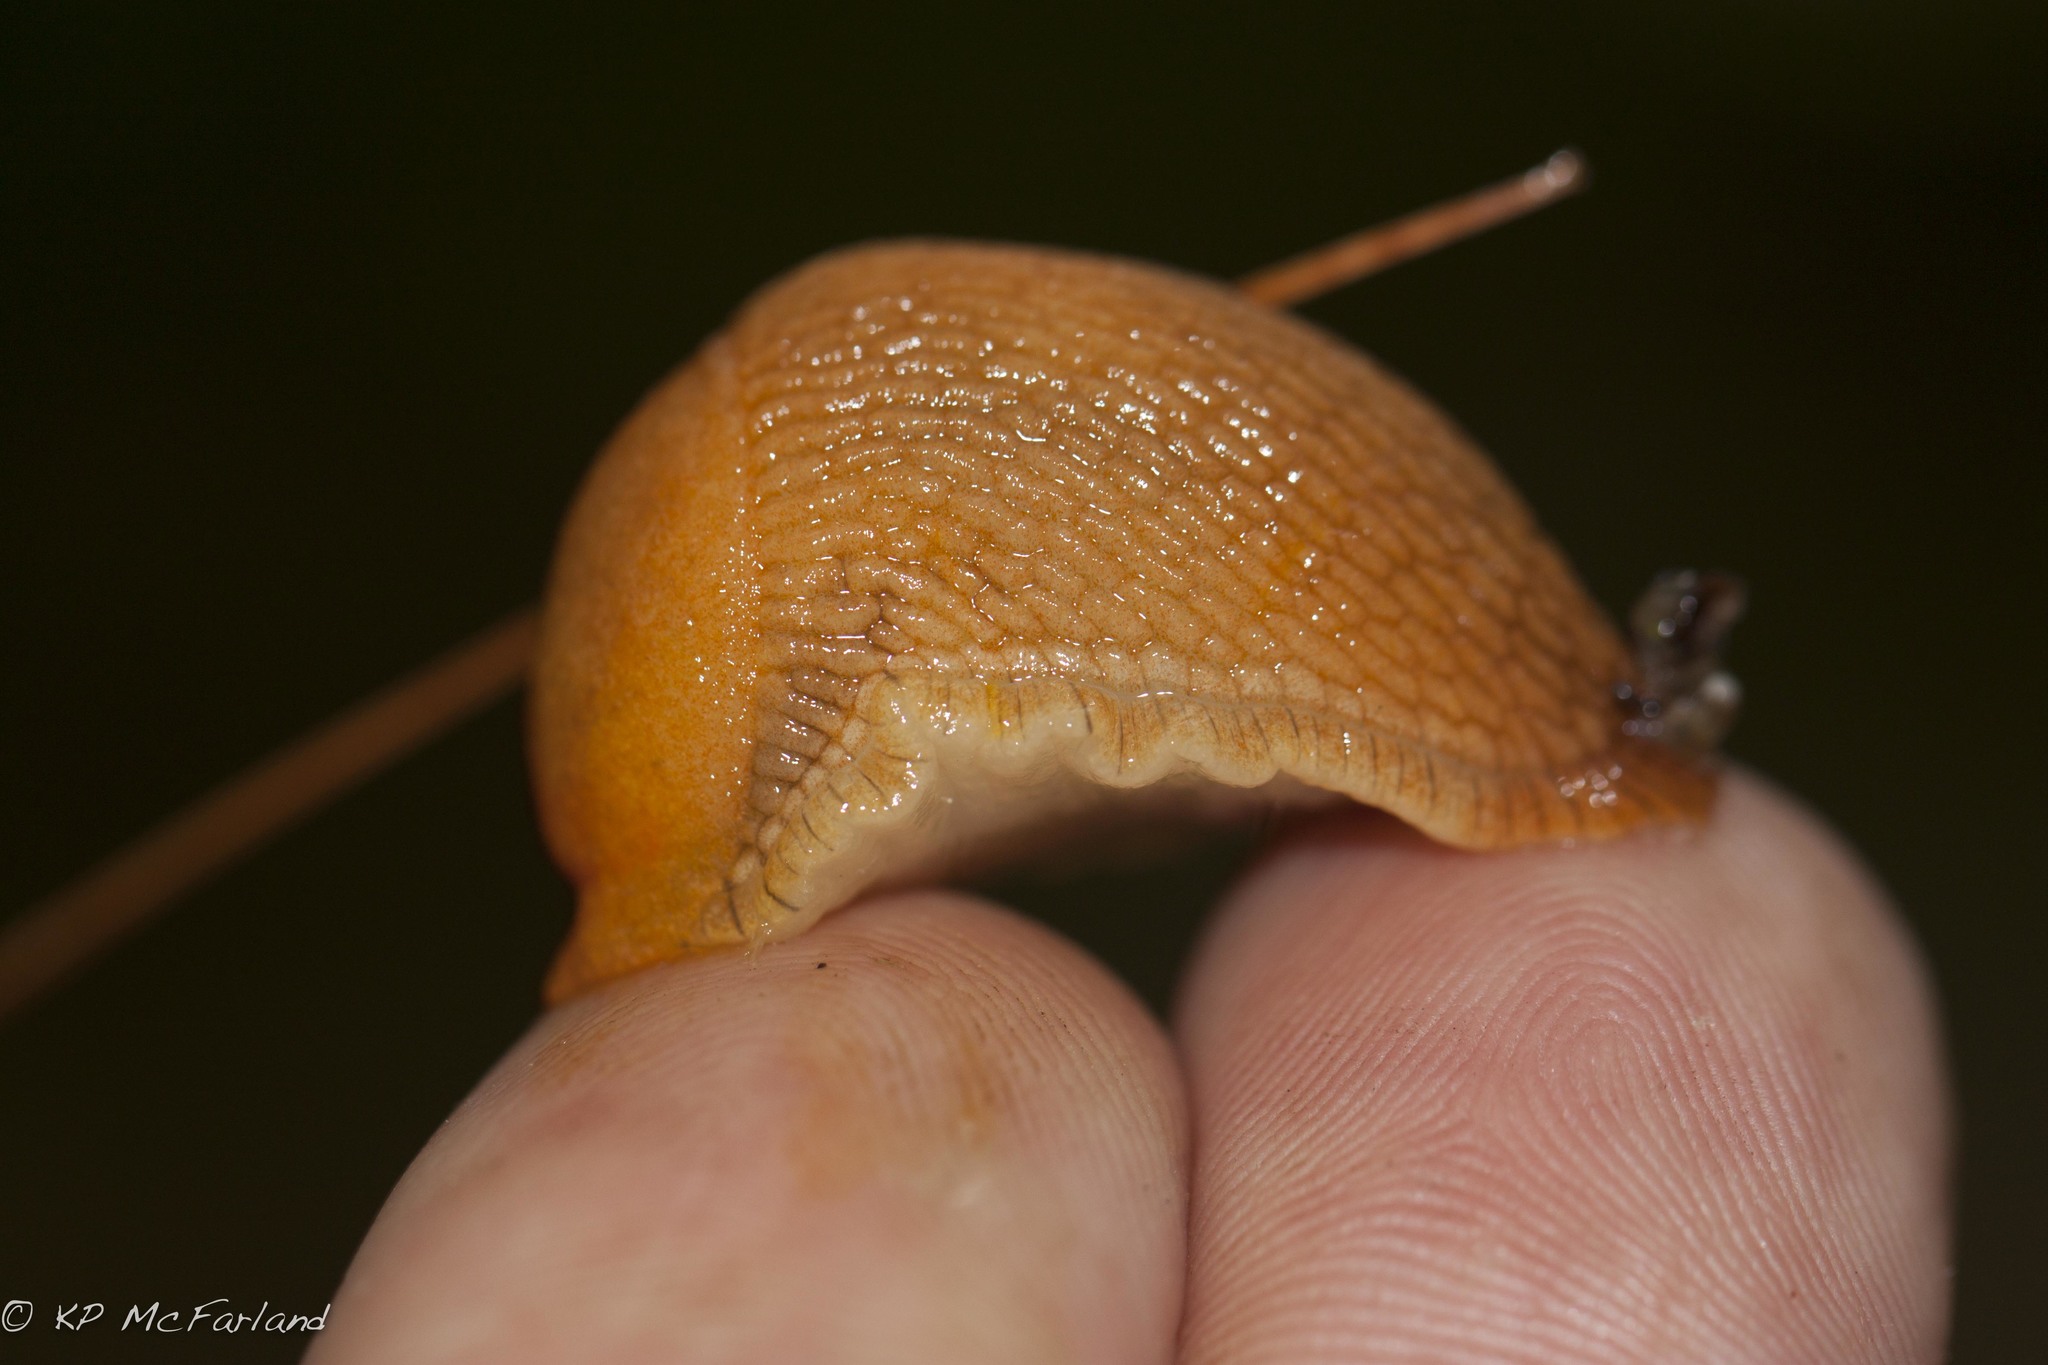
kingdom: Animalia
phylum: Mollusca
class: Gastropoda
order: Stylommatophora
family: Arionidae
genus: Mesarion
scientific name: Mesarion
